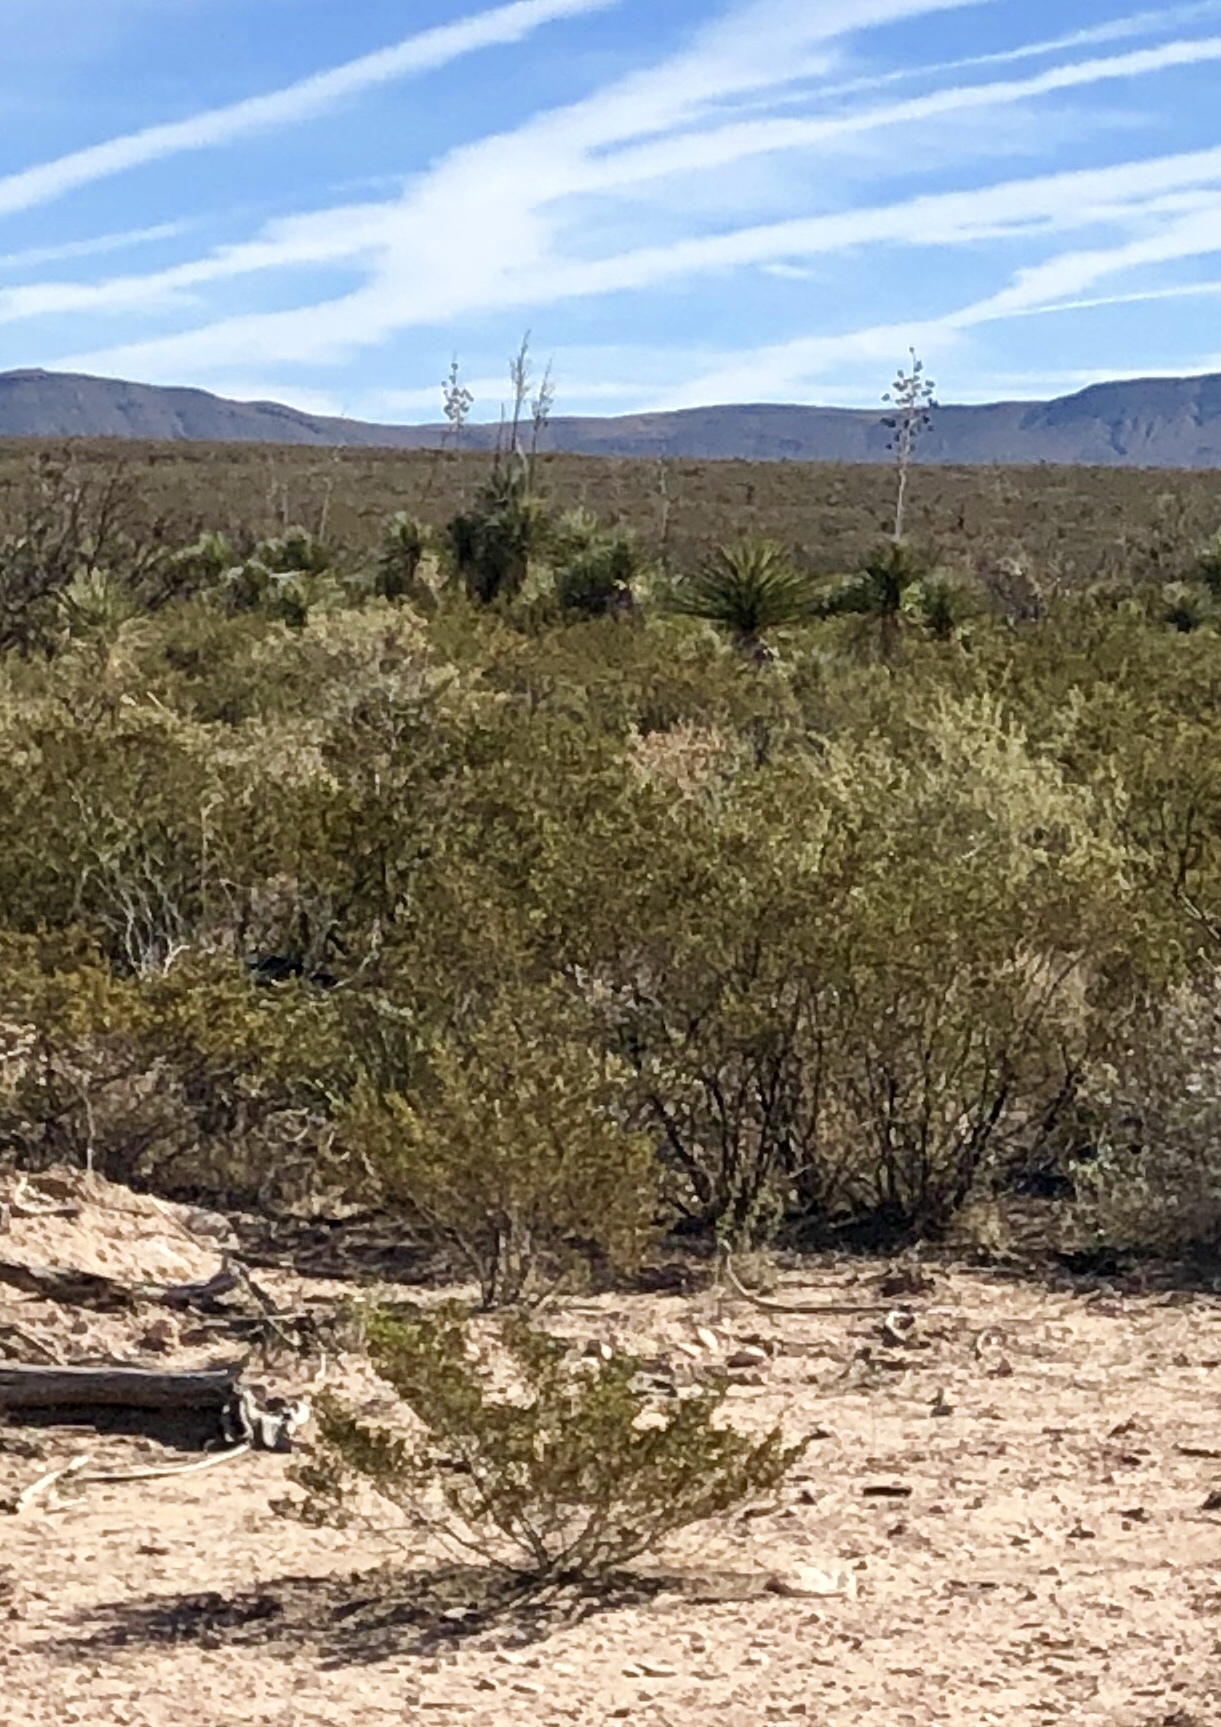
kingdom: Plantae
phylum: Tracheophyta
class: Magnoliopsida
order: Zygophyllales
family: Zygophyllaceae
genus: Larrea
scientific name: Larrea tridentata
